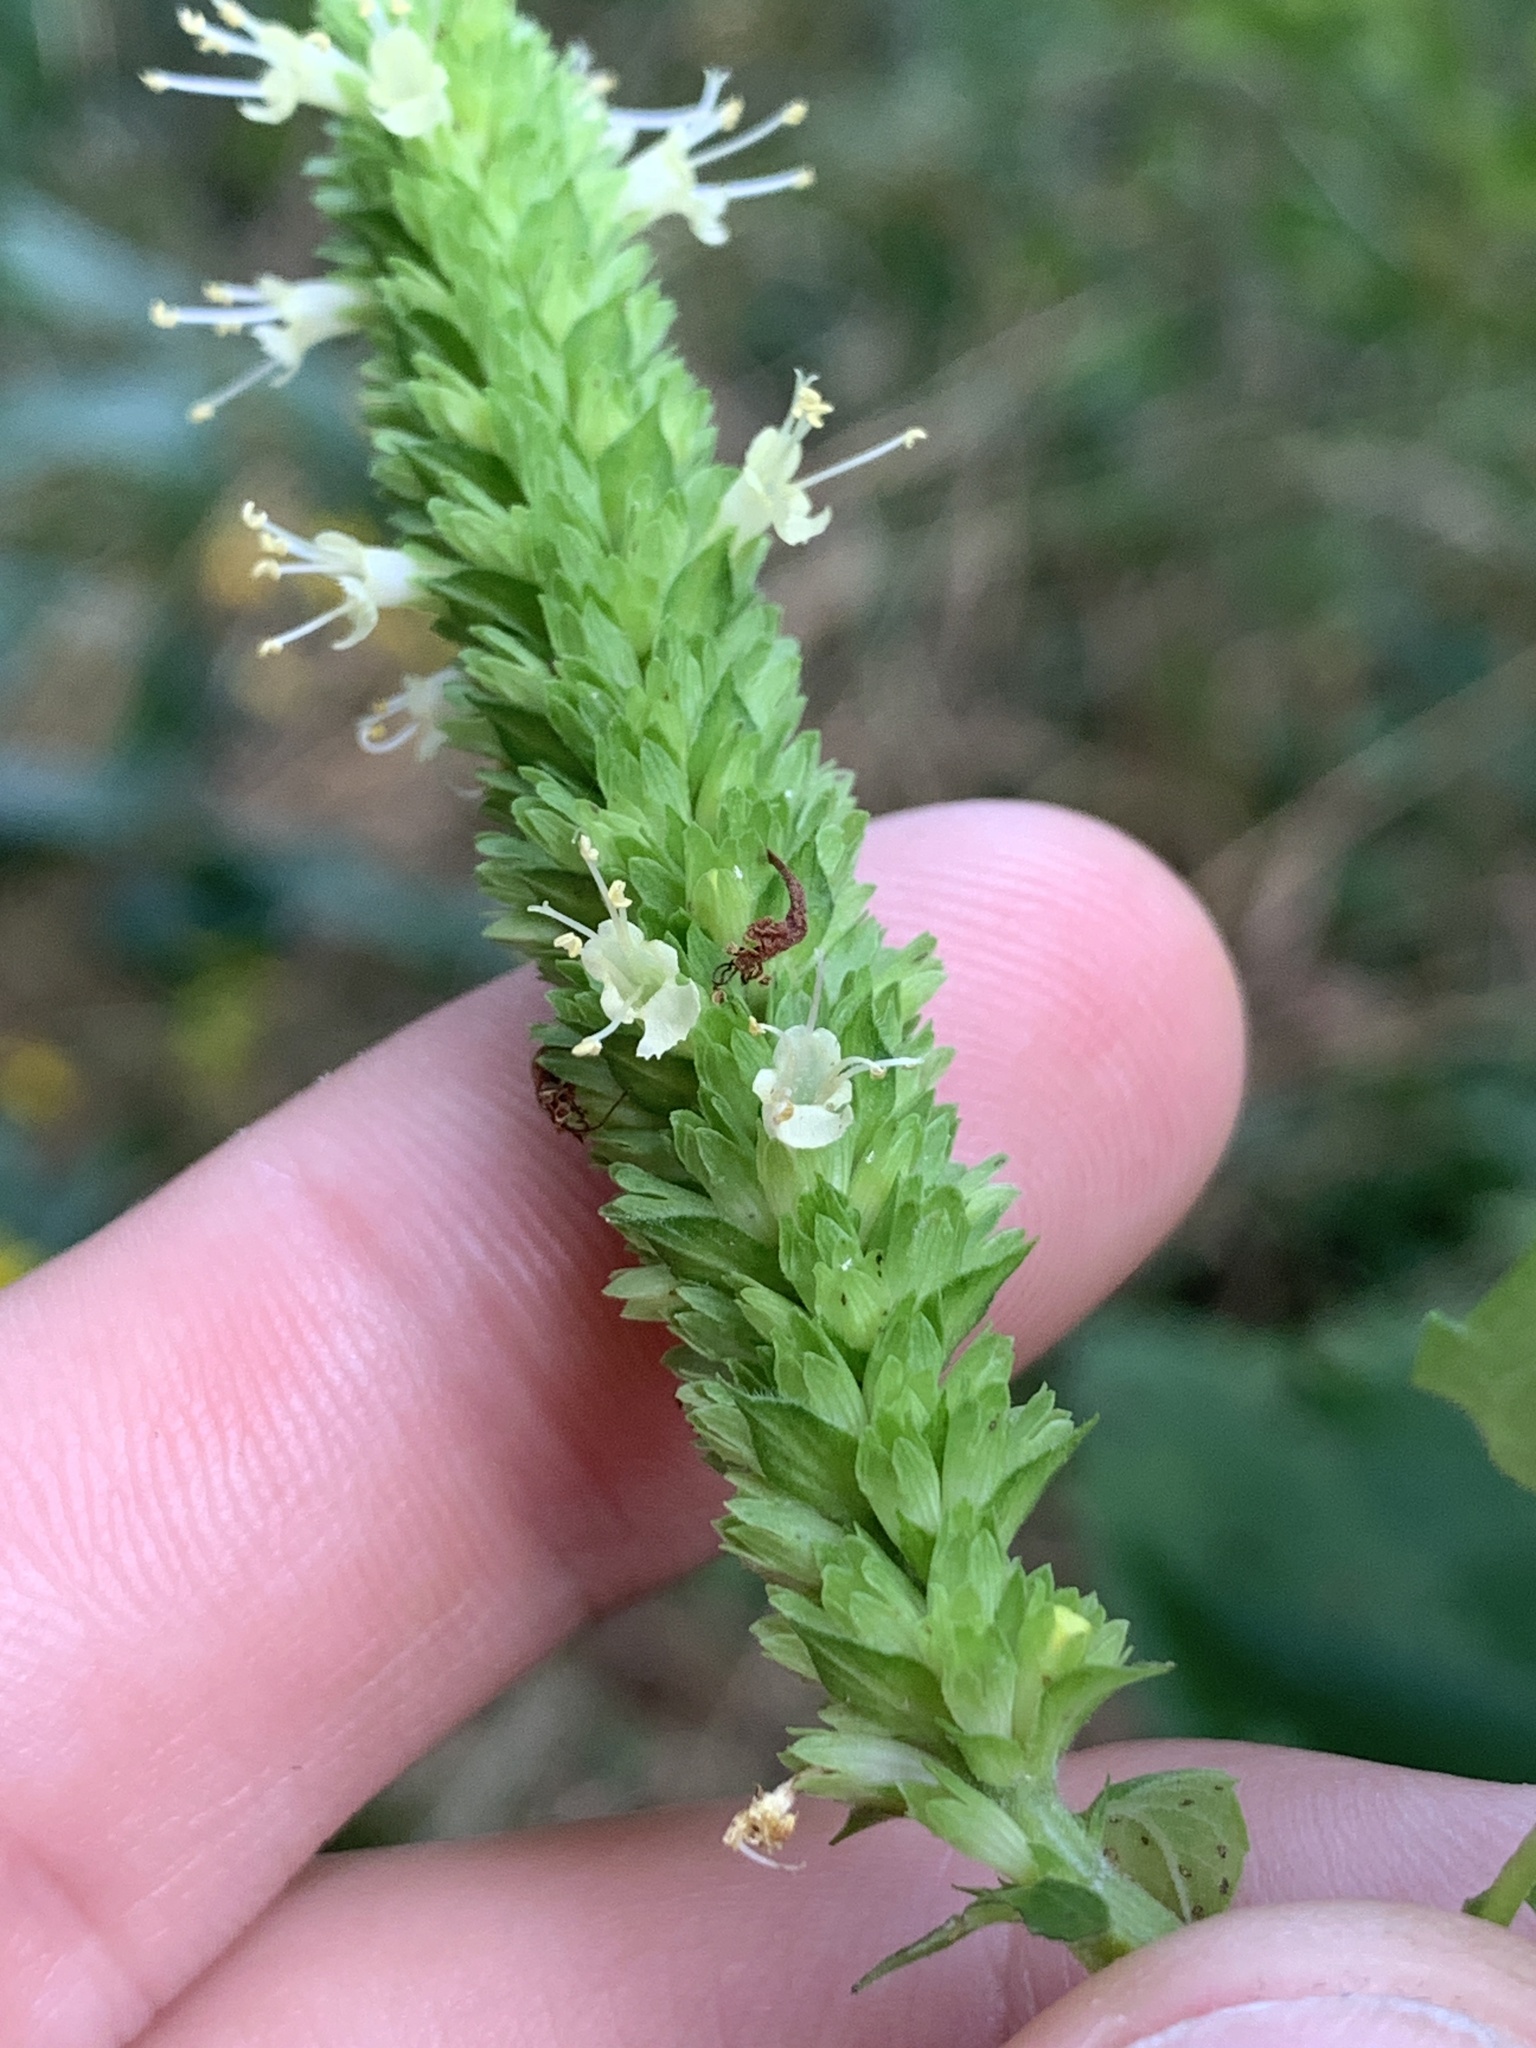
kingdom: Plantae
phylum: Tracheophyta
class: Magnoliopsida
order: Lamiales
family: Lamiaceae
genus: Agastache
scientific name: Agastache nepetoides
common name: Catnip giant hyssop
